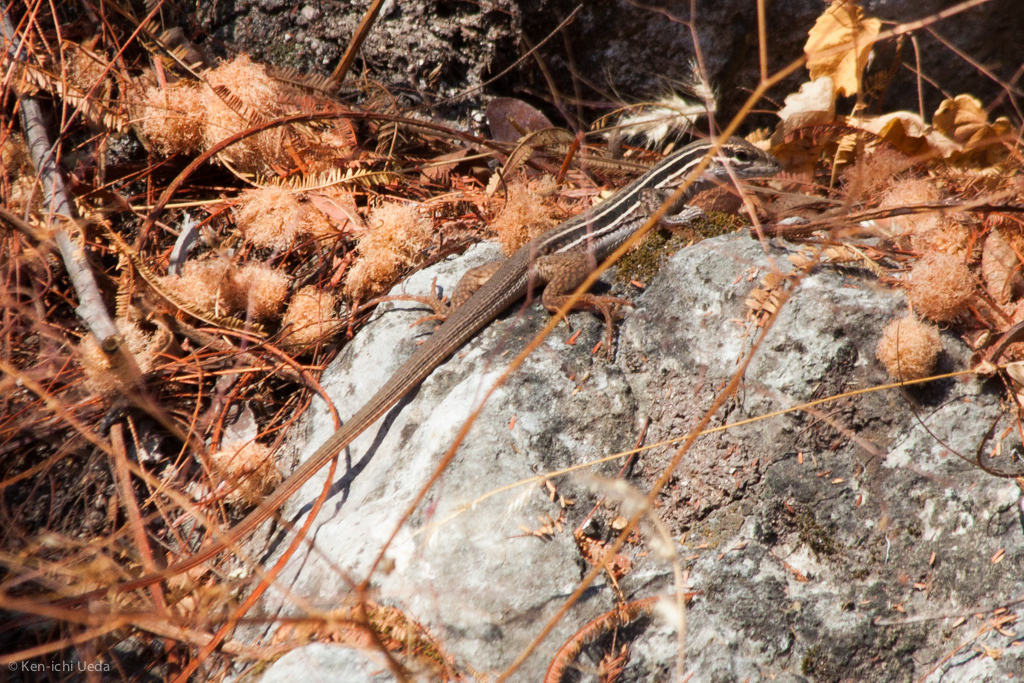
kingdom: Animalia
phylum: Chordata
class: Squamata
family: Teiidae
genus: Aspidoscelis
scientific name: Aspidoscelis costatus
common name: Western mexico whiptail
